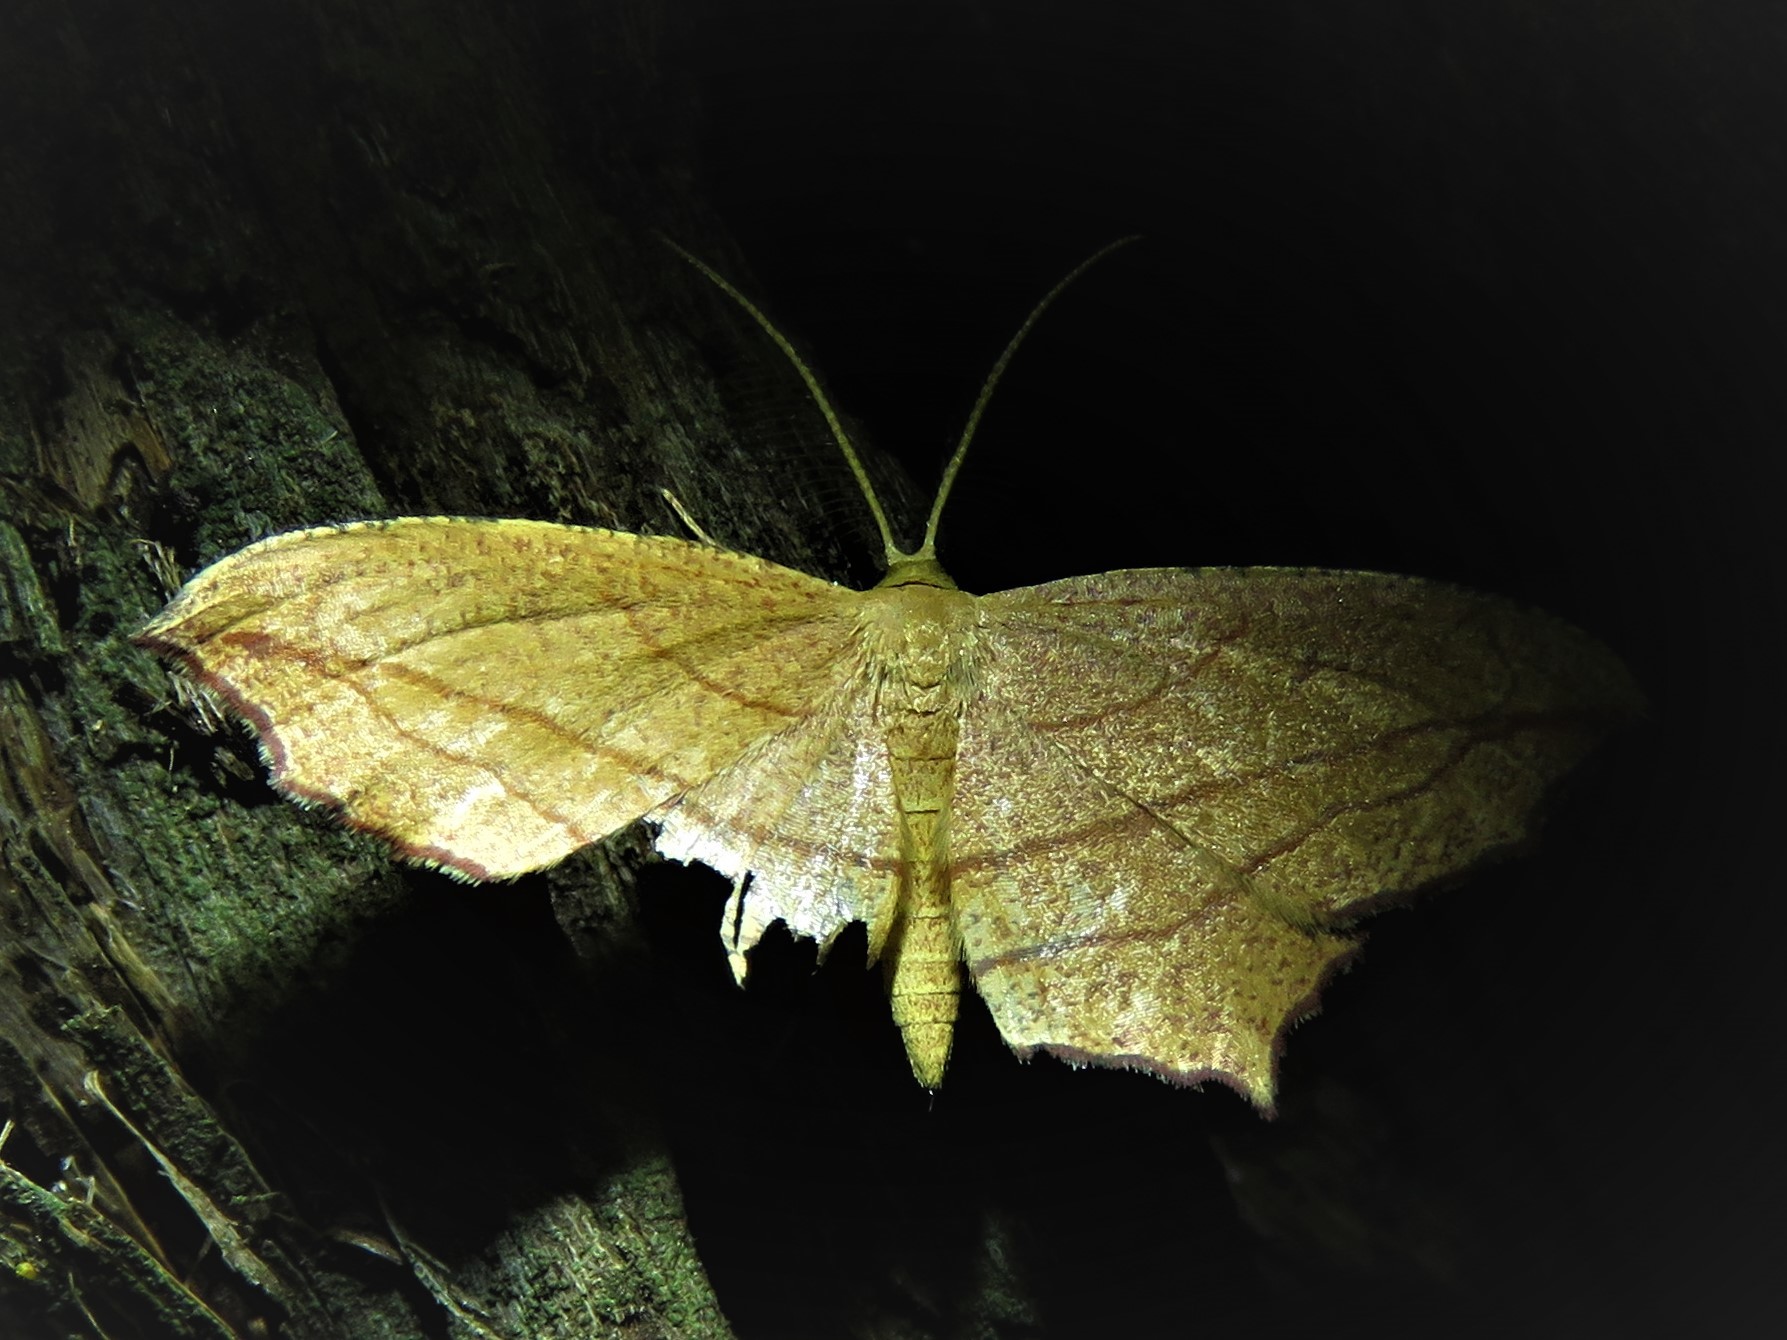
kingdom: Animalia
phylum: Arthropoda
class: Insecta
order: Lepidoptera
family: Geometridae
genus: Timandra
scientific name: Timandra amaturaria
